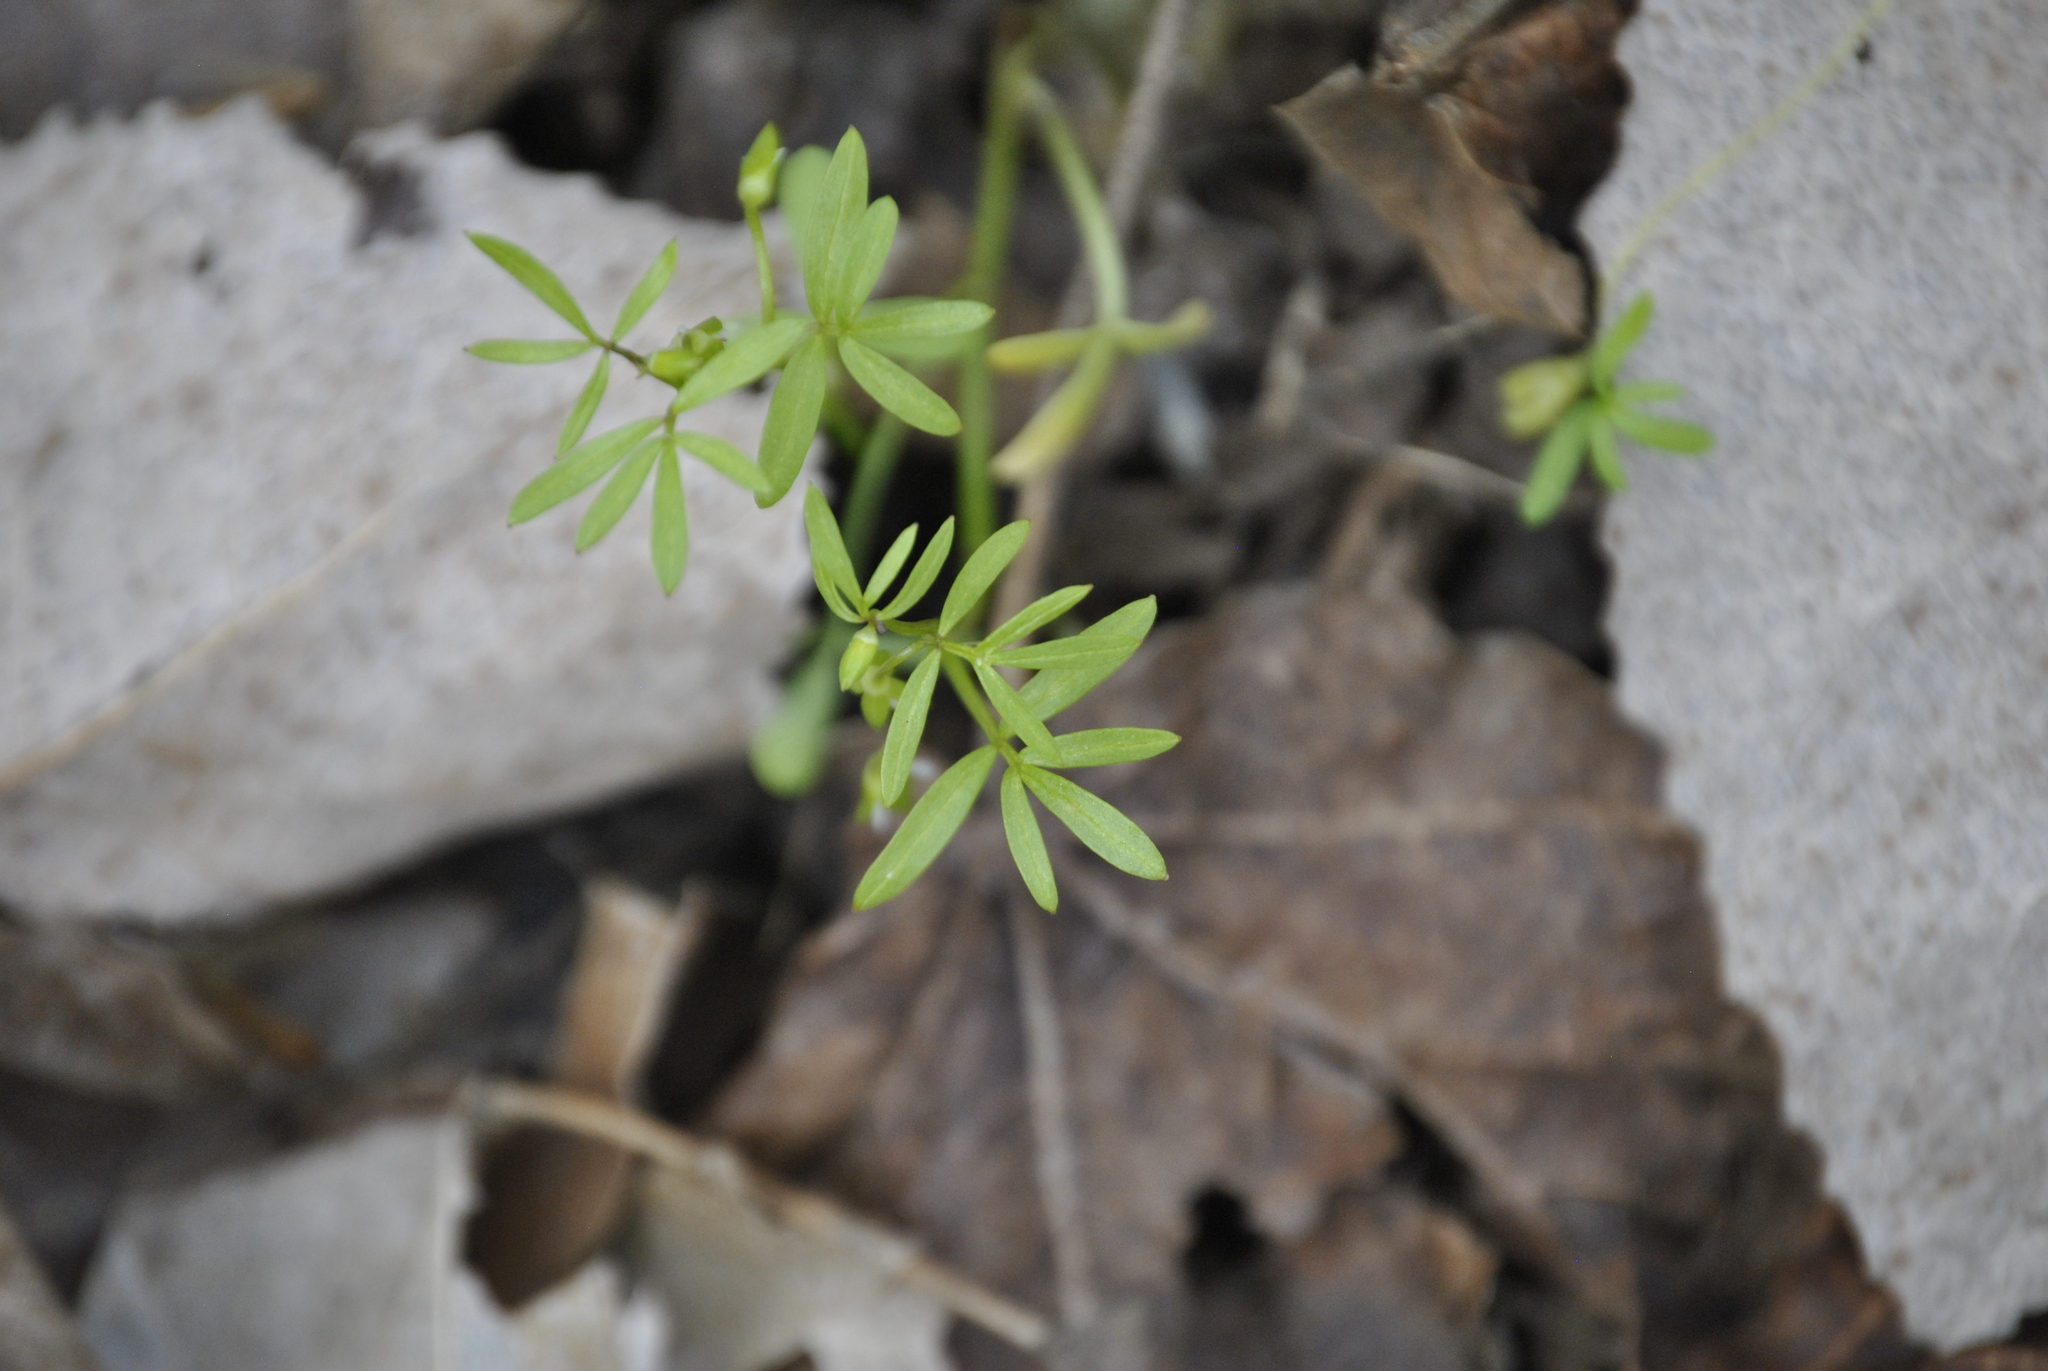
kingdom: Plantae
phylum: Tracheophyta
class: Magnoliopsida
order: Brassicales
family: Limnanthaceae
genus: Floerkea
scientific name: Floerkea proserpinacoides
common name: False mermaid
